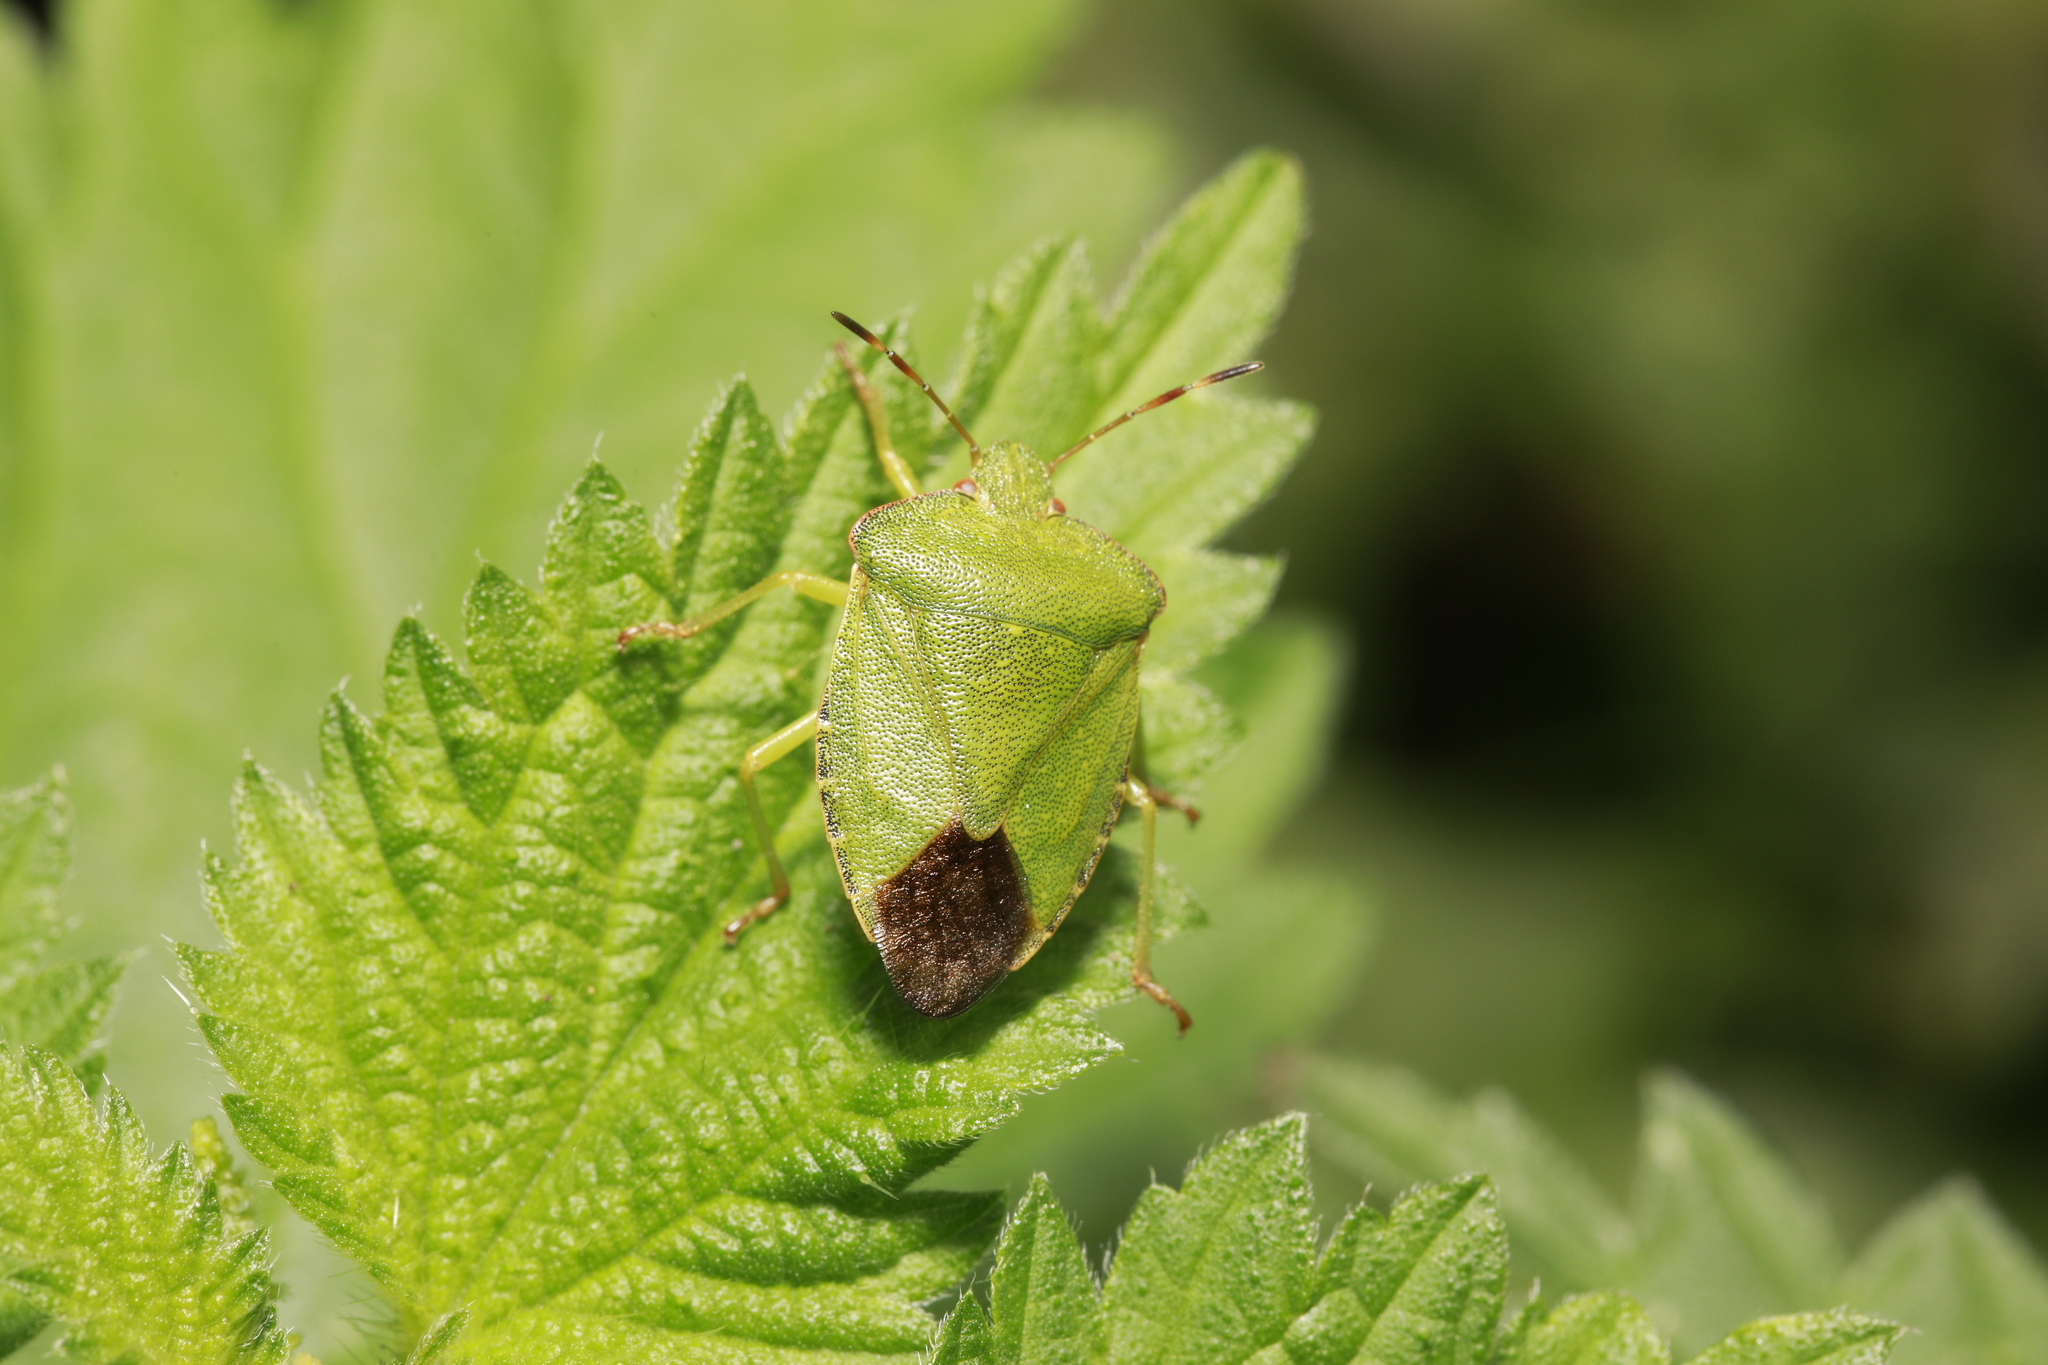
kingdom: Animalia
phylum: Arthropoda
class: Insecta
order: Hemiptera
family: Pentatomidae
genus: Palomena
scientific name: Palomena prasina
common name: Green shieldbug
